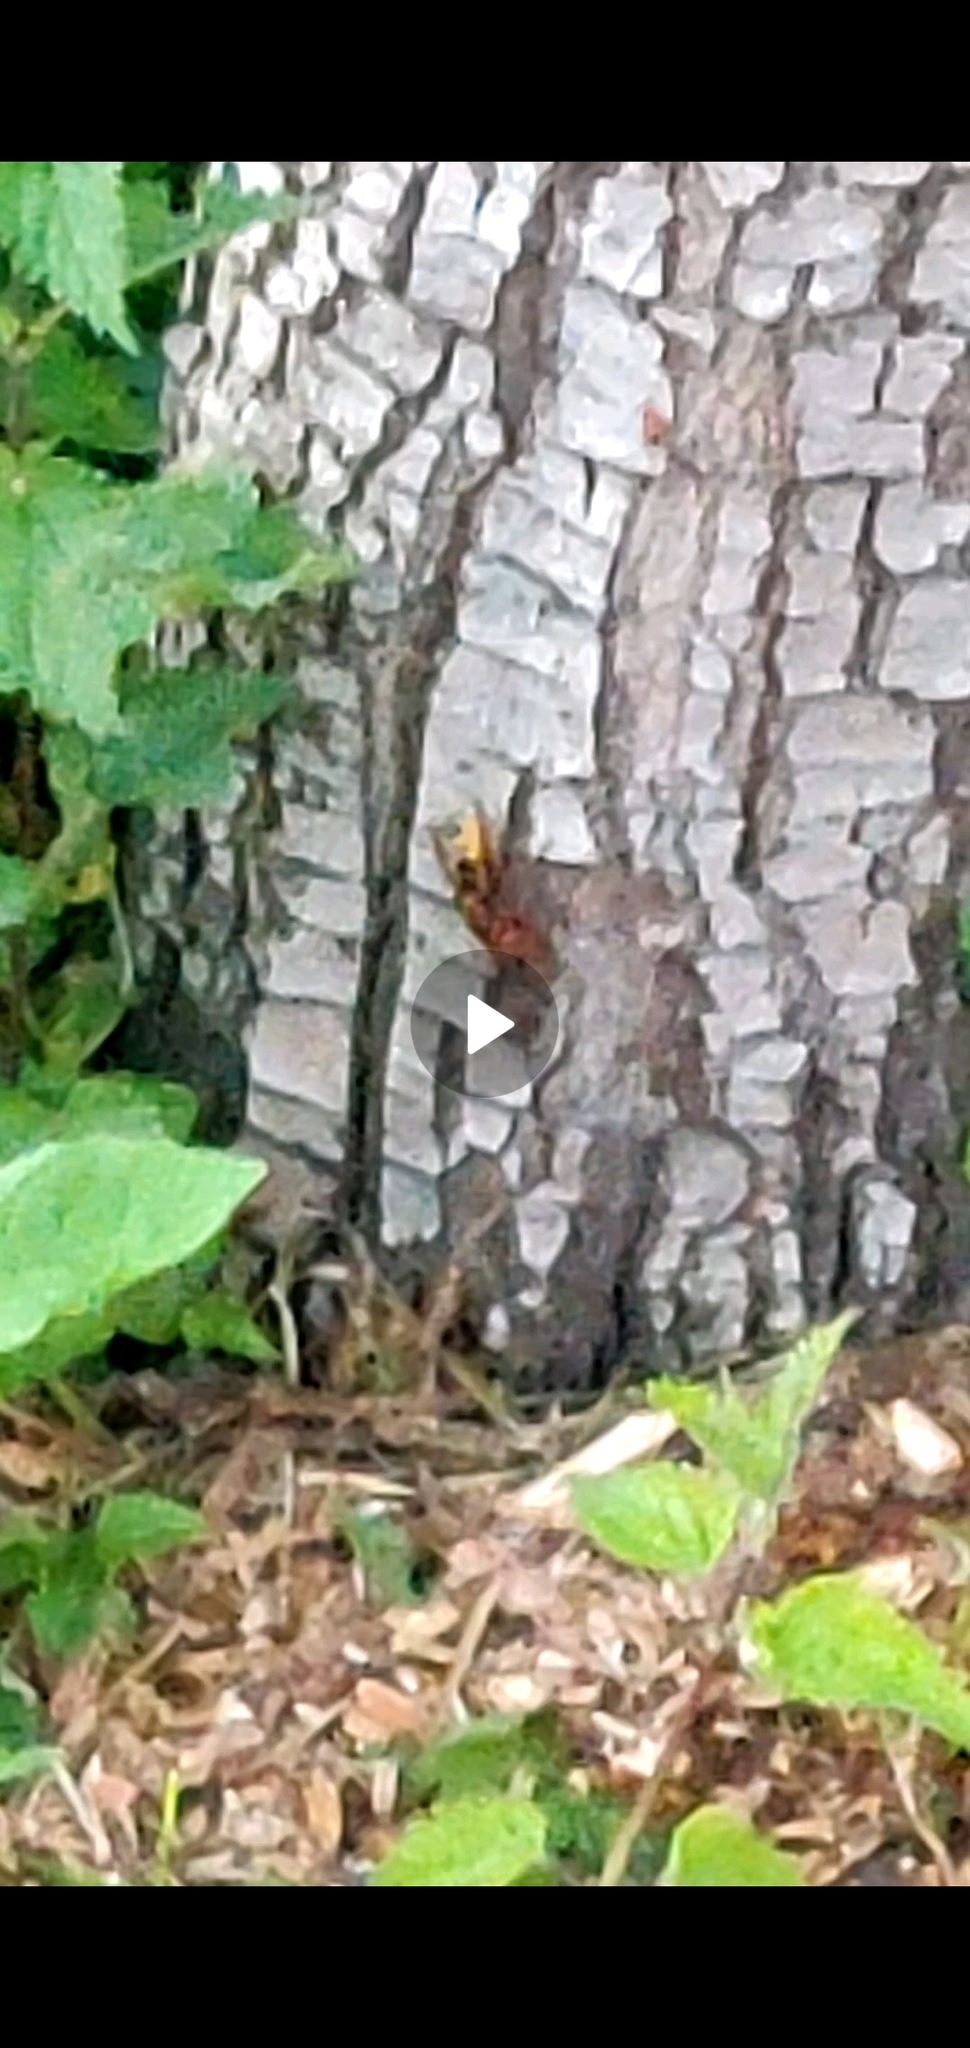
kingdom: Animalia
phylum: Arthropoda
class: Insecta
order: Hymenoptera
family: Vespidae
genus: Vespa
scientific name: Vespa crabro
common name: Hornet
